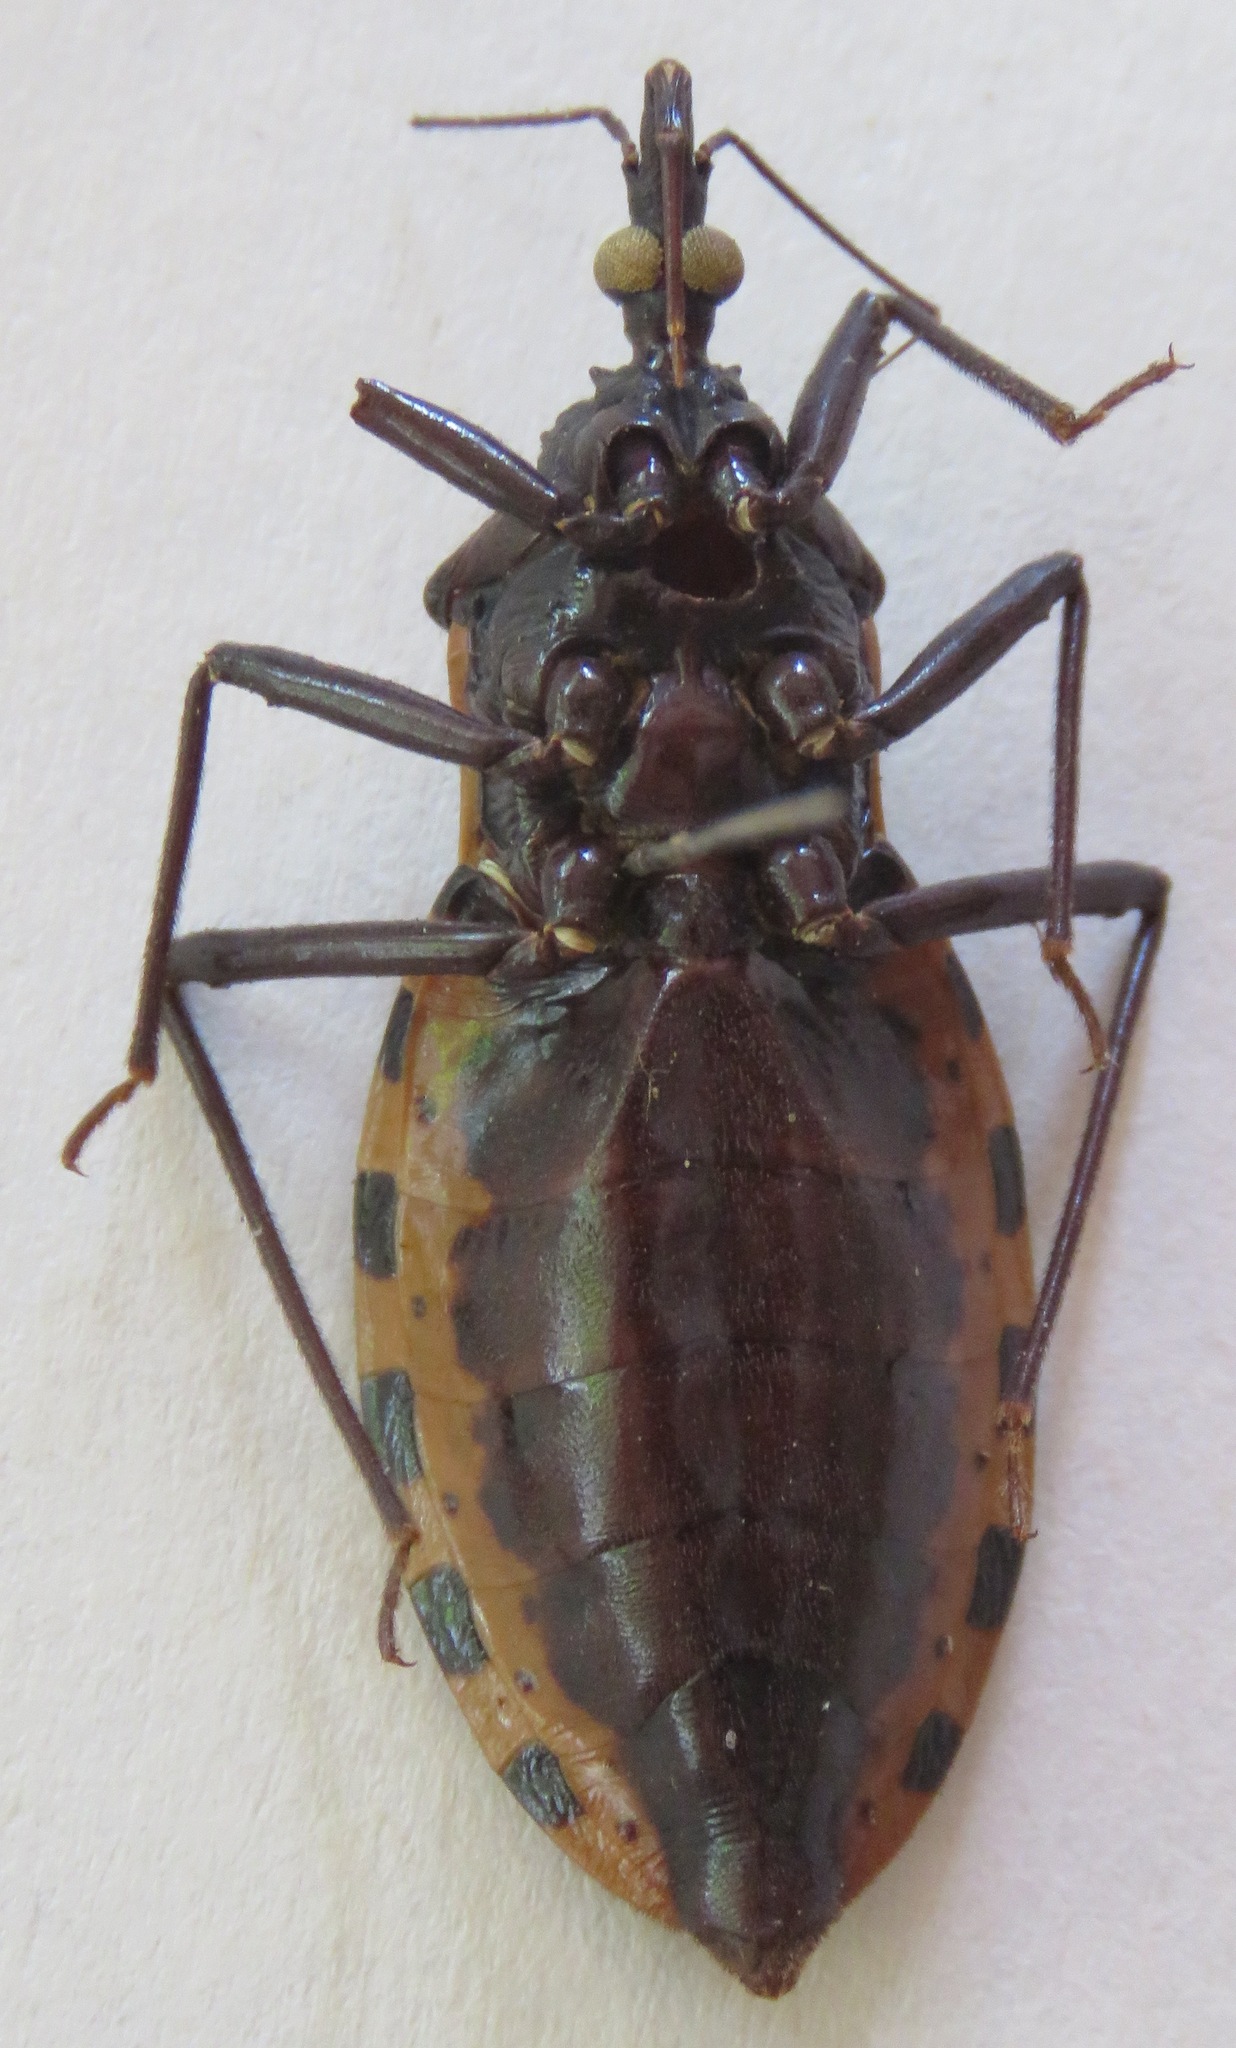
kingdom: Animalia
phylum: Arthropoda
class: Insecta
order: Hemiptera
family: Reduviidae
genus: Meccus
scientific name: Meccus dimidiatus
